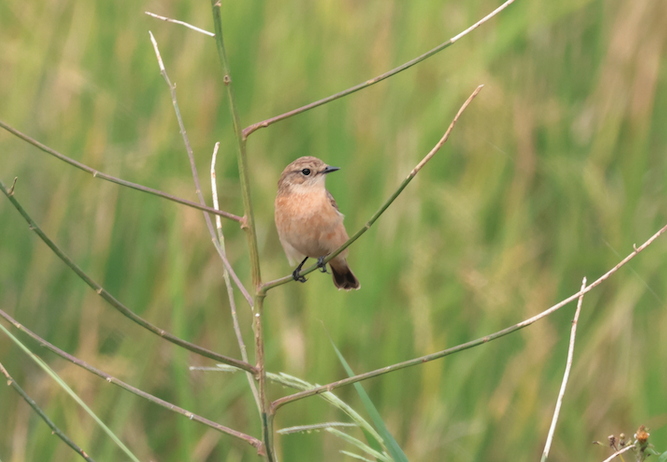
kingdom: Animalia
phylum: Chordata
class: Aves
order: Passeriformes
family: Muscicapidae
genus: Saxicola
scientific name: Saxicola stejnegeri
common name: Stejneger's stonechat
